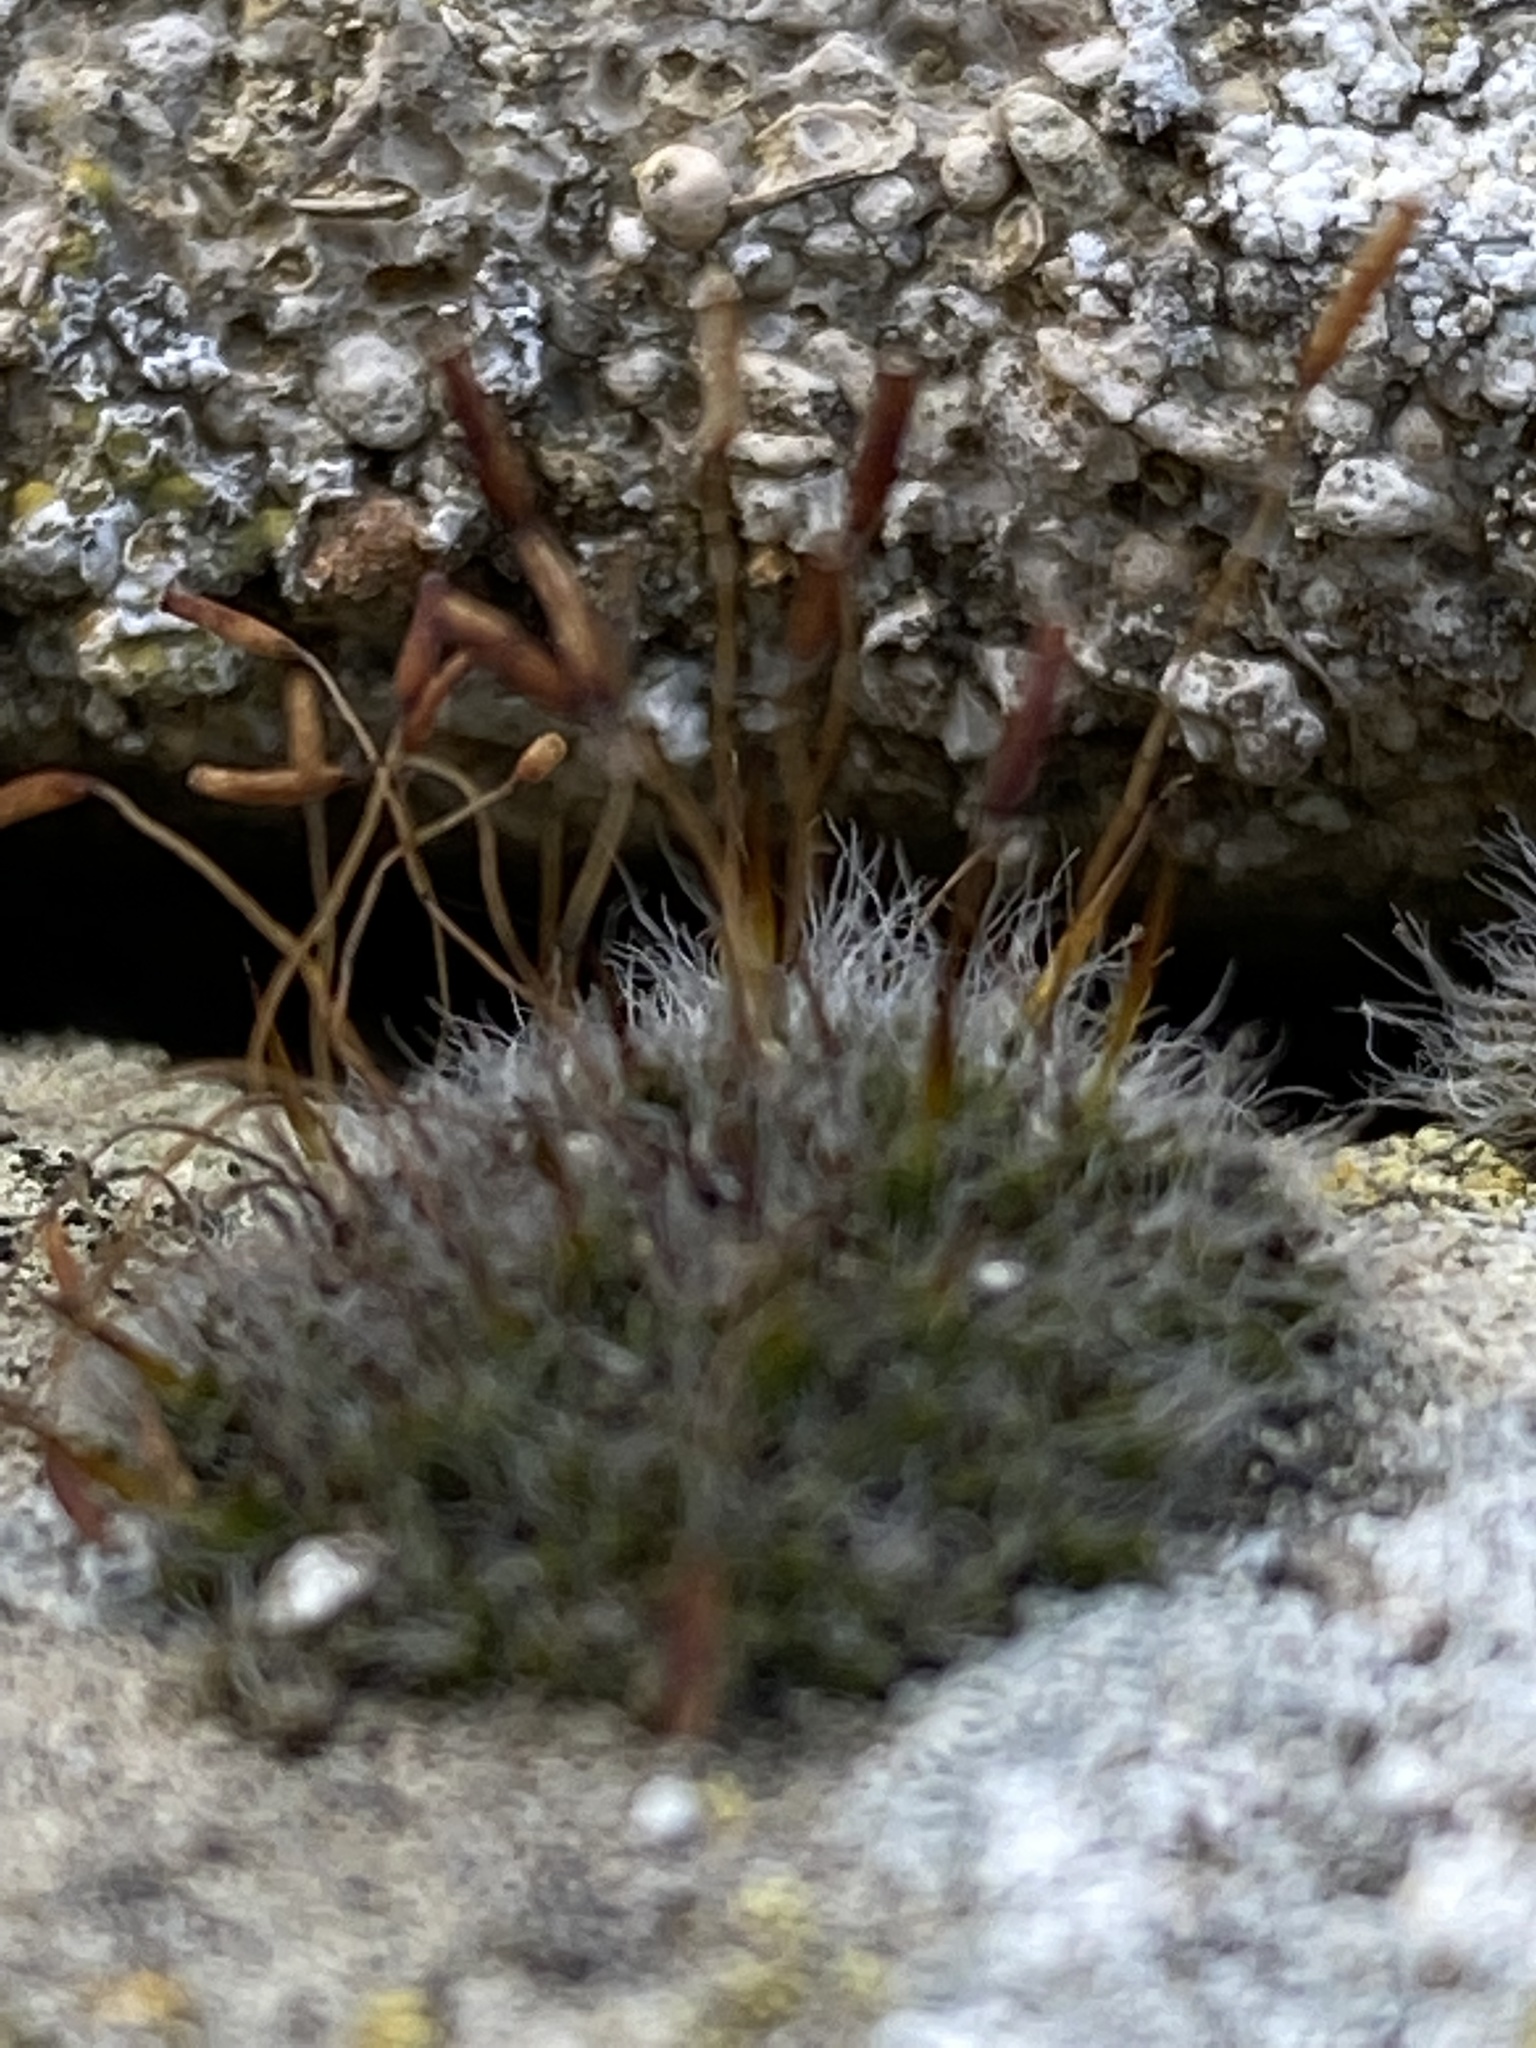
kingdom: Plantae
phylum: Bryophyta
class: Bryopsida
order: Pottiales
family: Pottiaceae
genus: Tortula
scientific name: Tortula muralis
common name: Wall screw-moss
